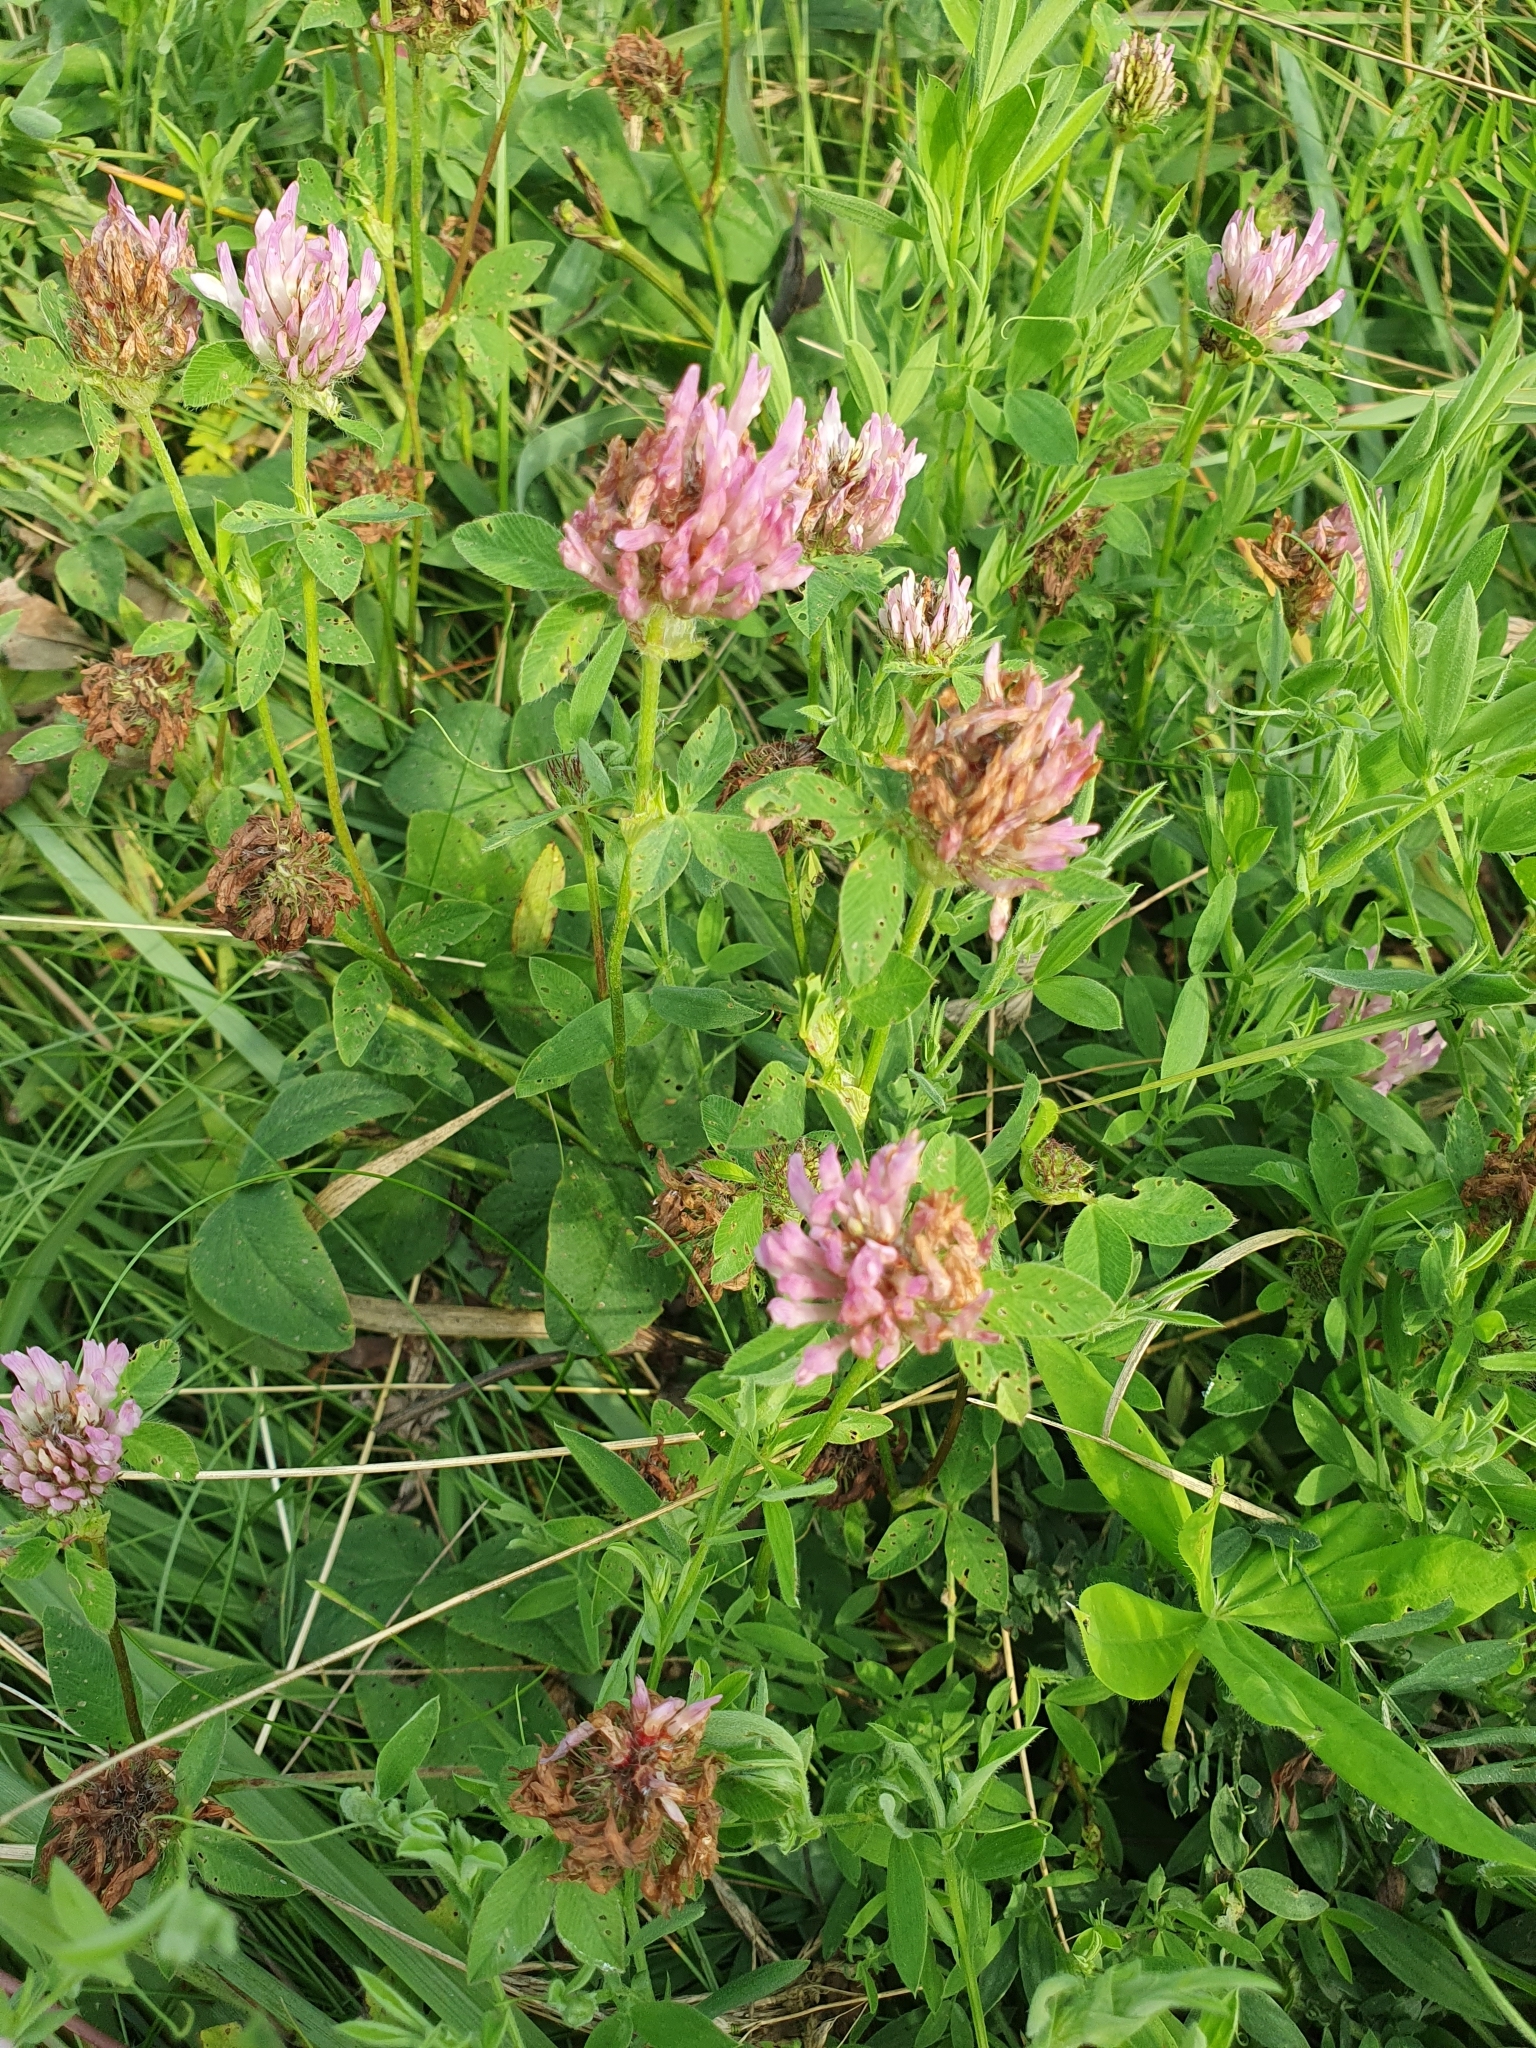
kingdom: Plantae
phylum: Tracheophyta
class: Magnoliopsida
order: Fabales
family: Fabaceae
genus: Trifolium
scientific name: Trifolium pratense
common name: Red clover
